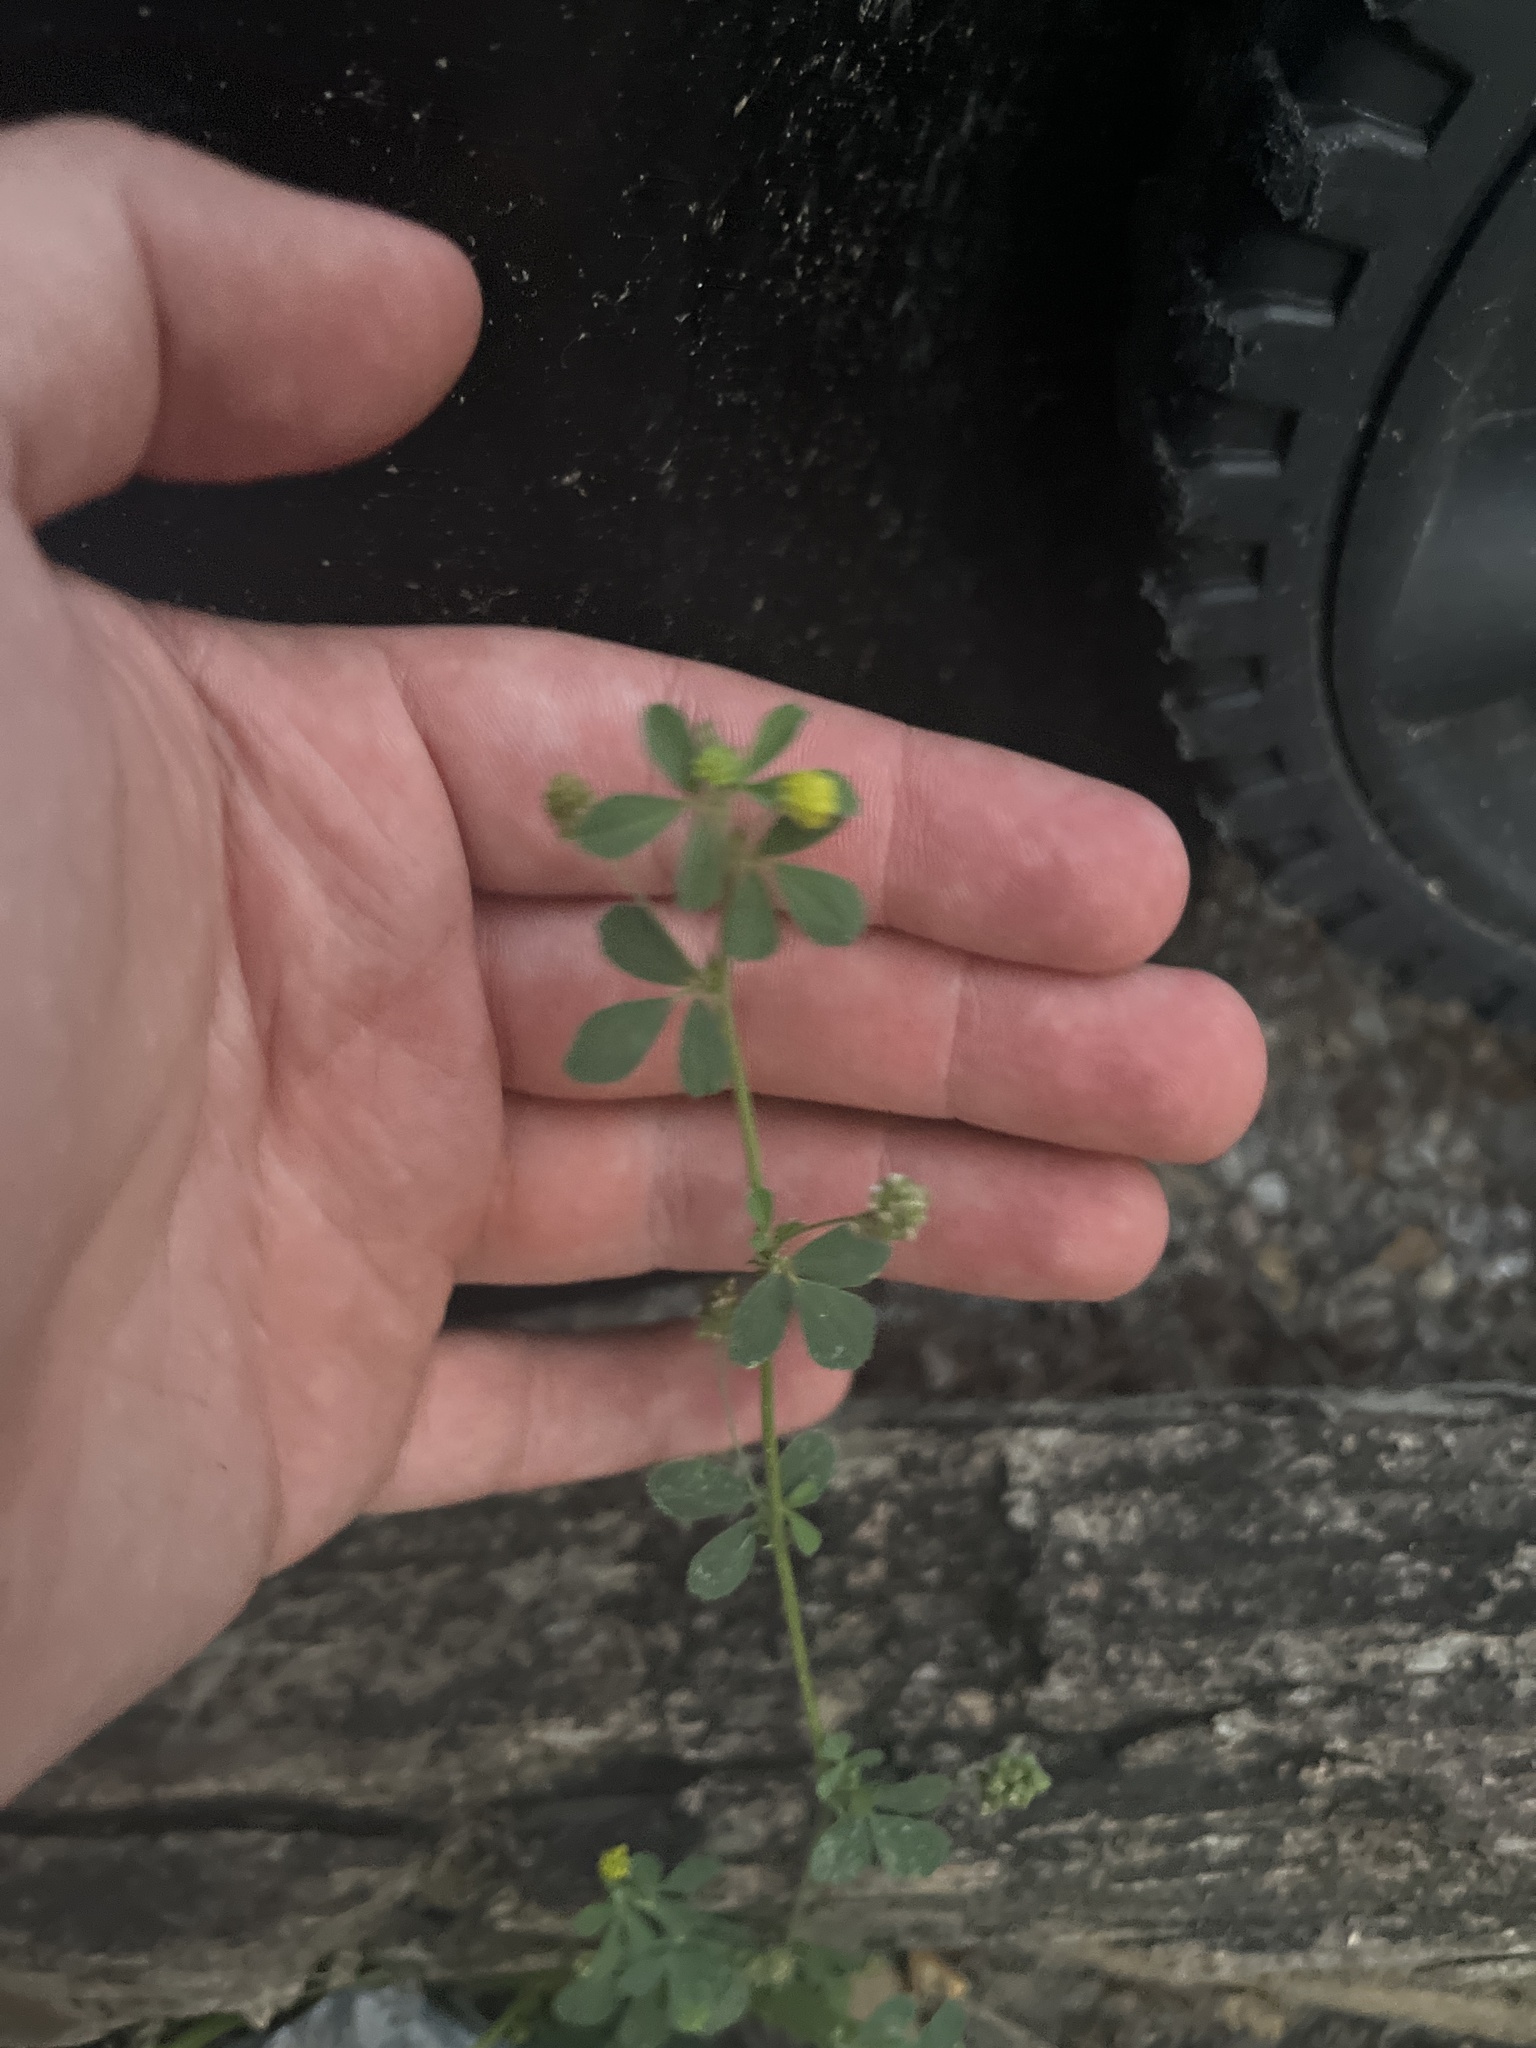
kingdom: Plantae
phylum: Tracheophyta
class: Magnoliopsida
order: Fabales
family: Fabaceae
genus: Medicago
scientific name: Medicago lupulina
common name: Black medick
